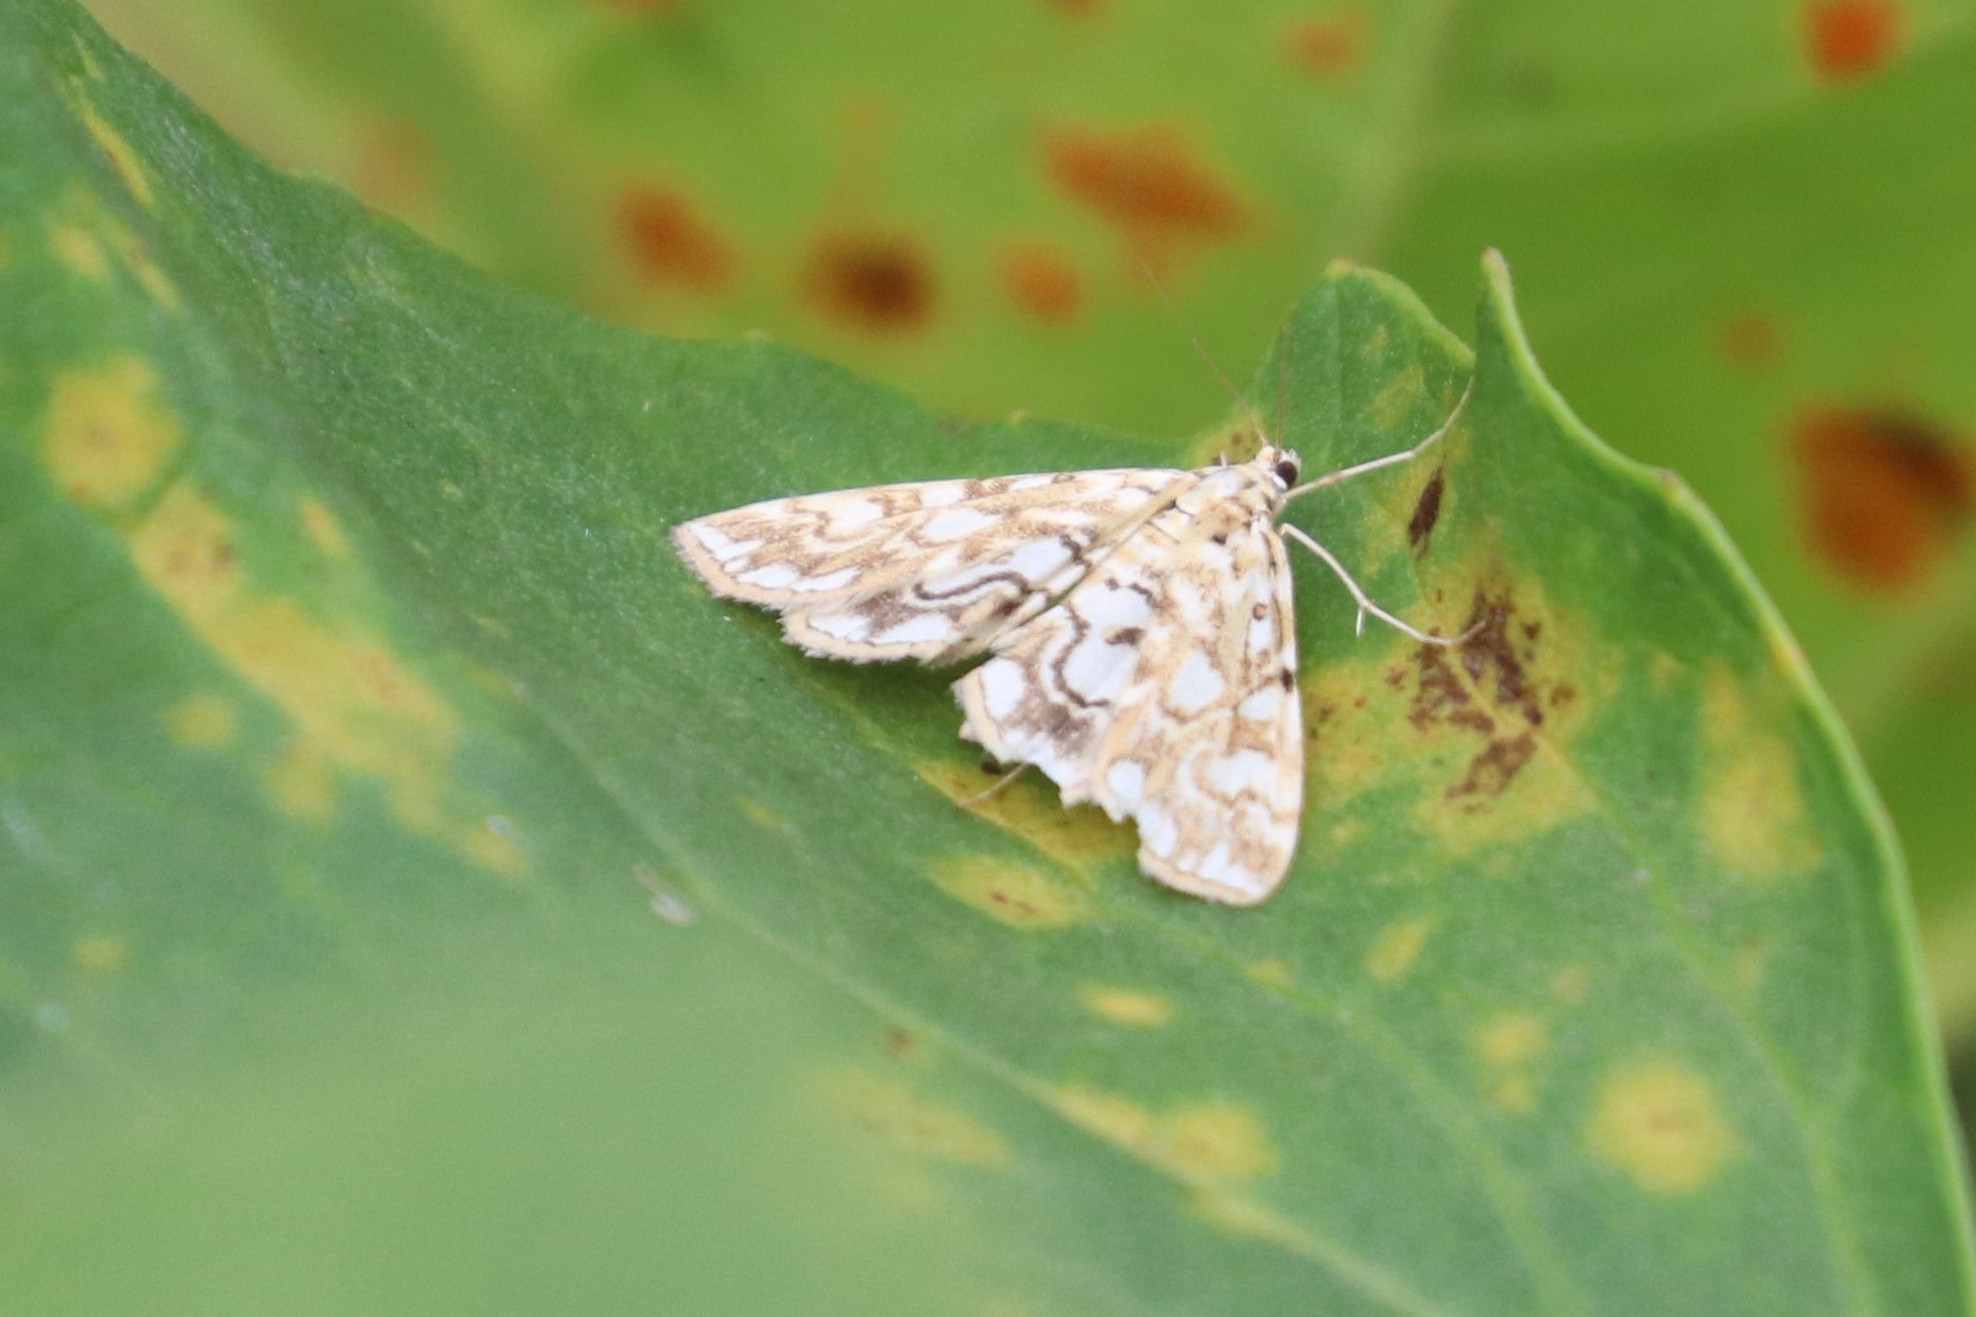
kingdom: Animalia
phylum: Arthropoda
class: Insecta
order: Lepidoptera
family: Crambidae
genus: Elophila
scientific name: Elophila nymphaeata
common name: Brown china-mark
